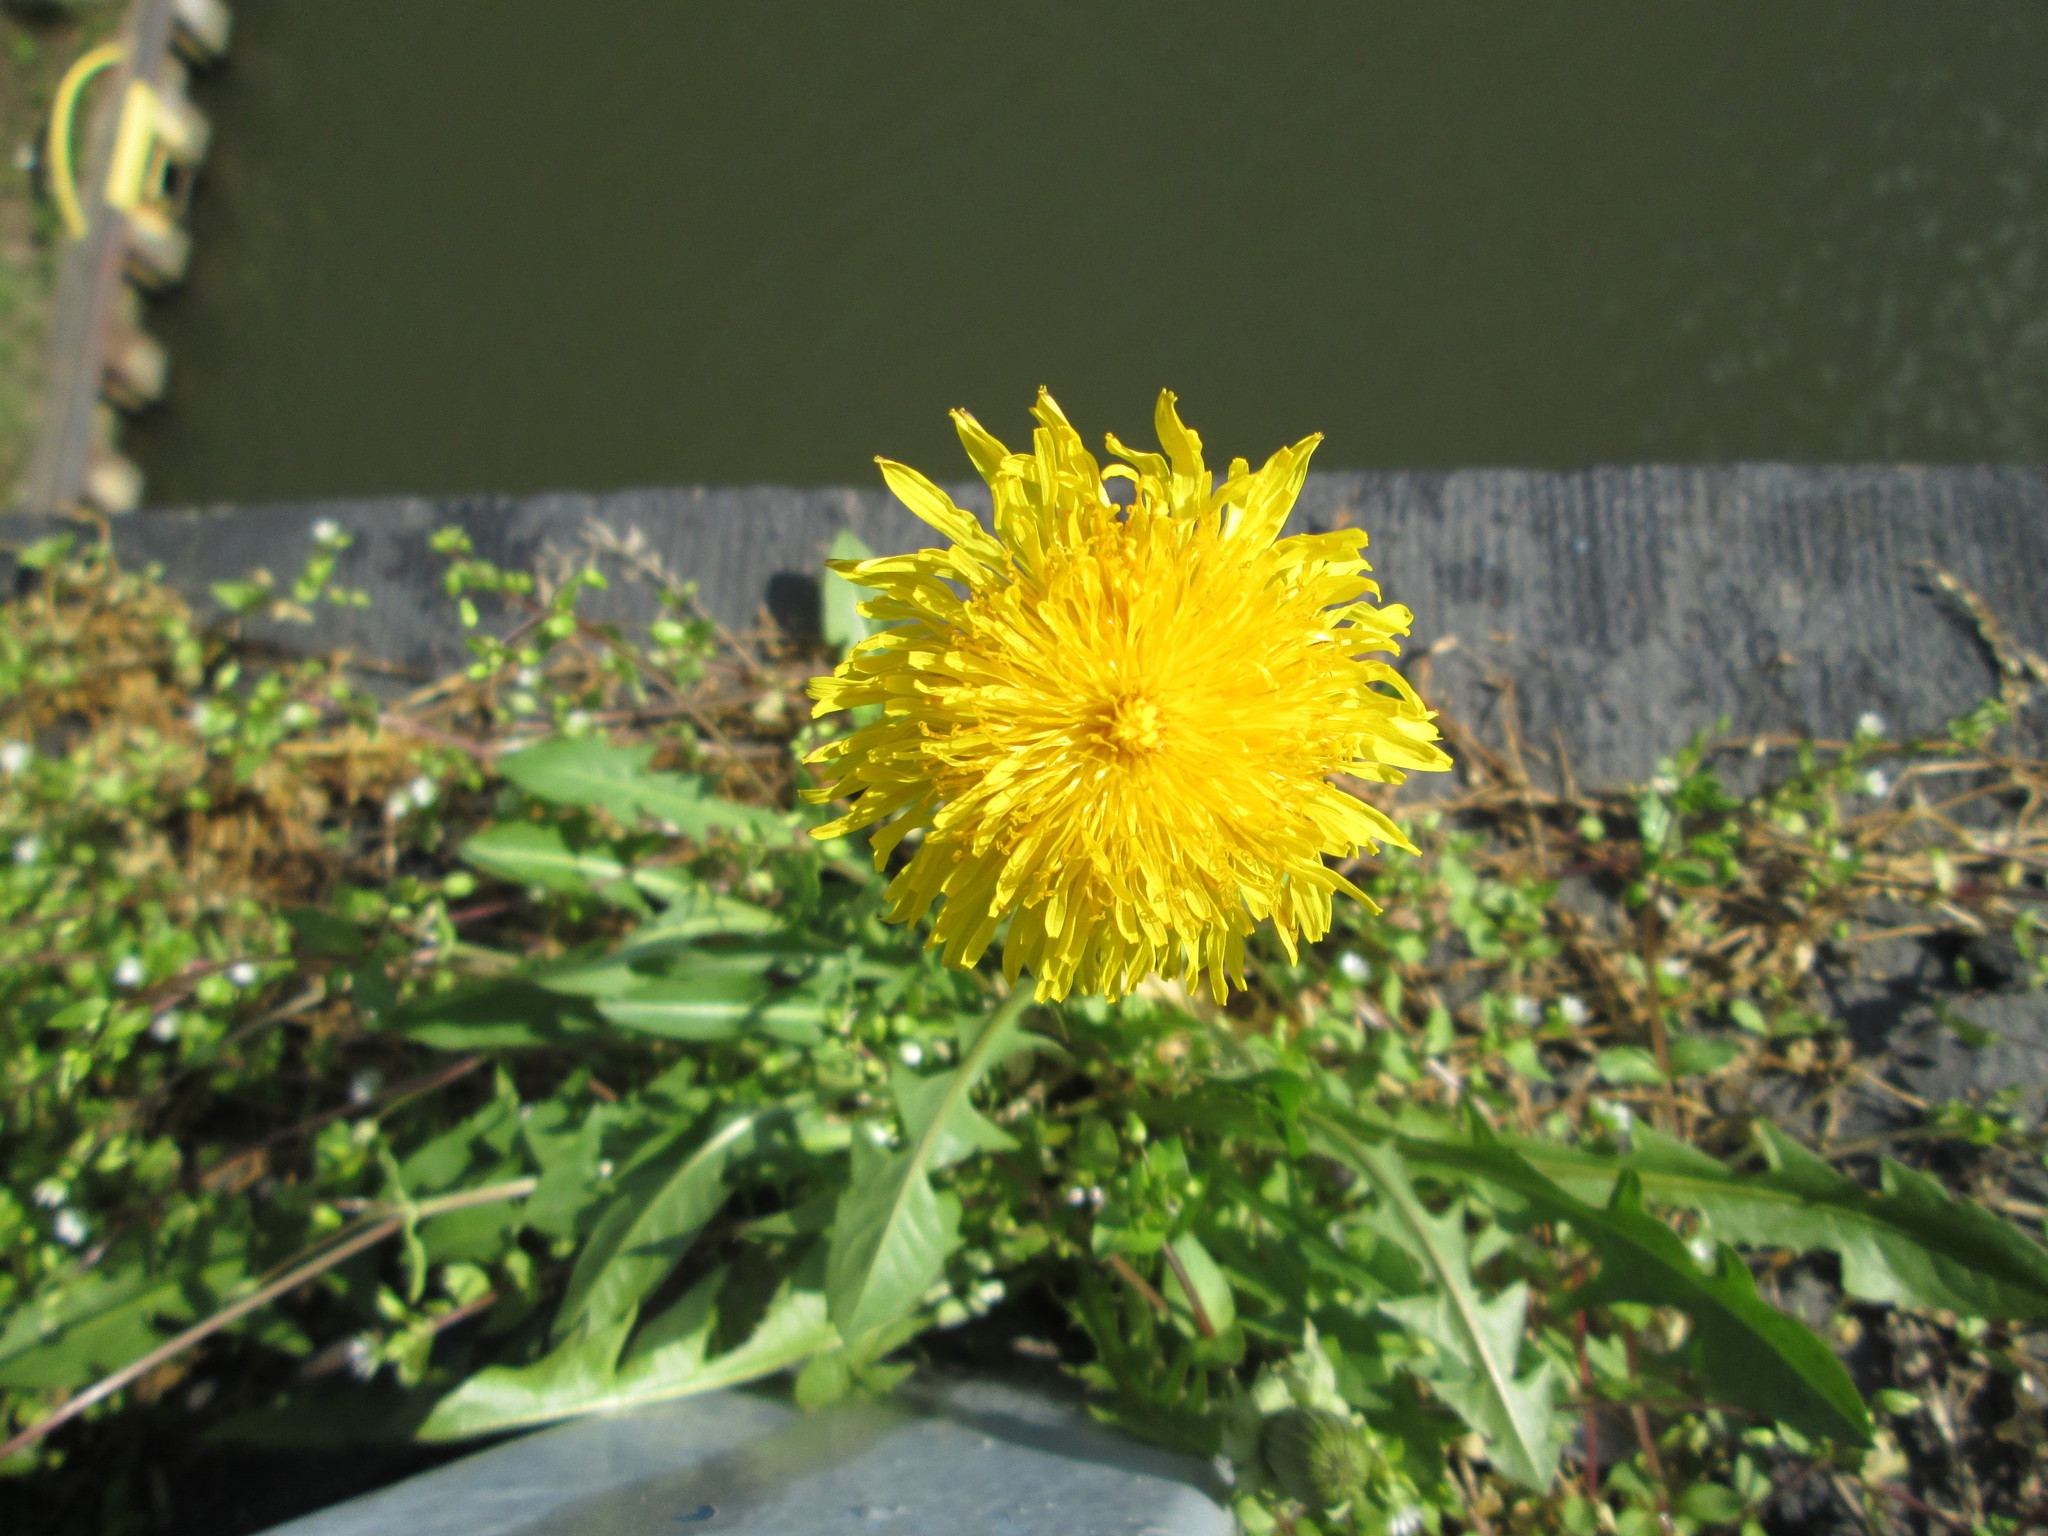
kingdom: Plantae
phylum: Tracheophyta
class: Magnoliopsida
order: Asterales
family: Asteraceae
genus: Taraxacum
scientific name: Taraxacum officinale
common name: Common dandelion
